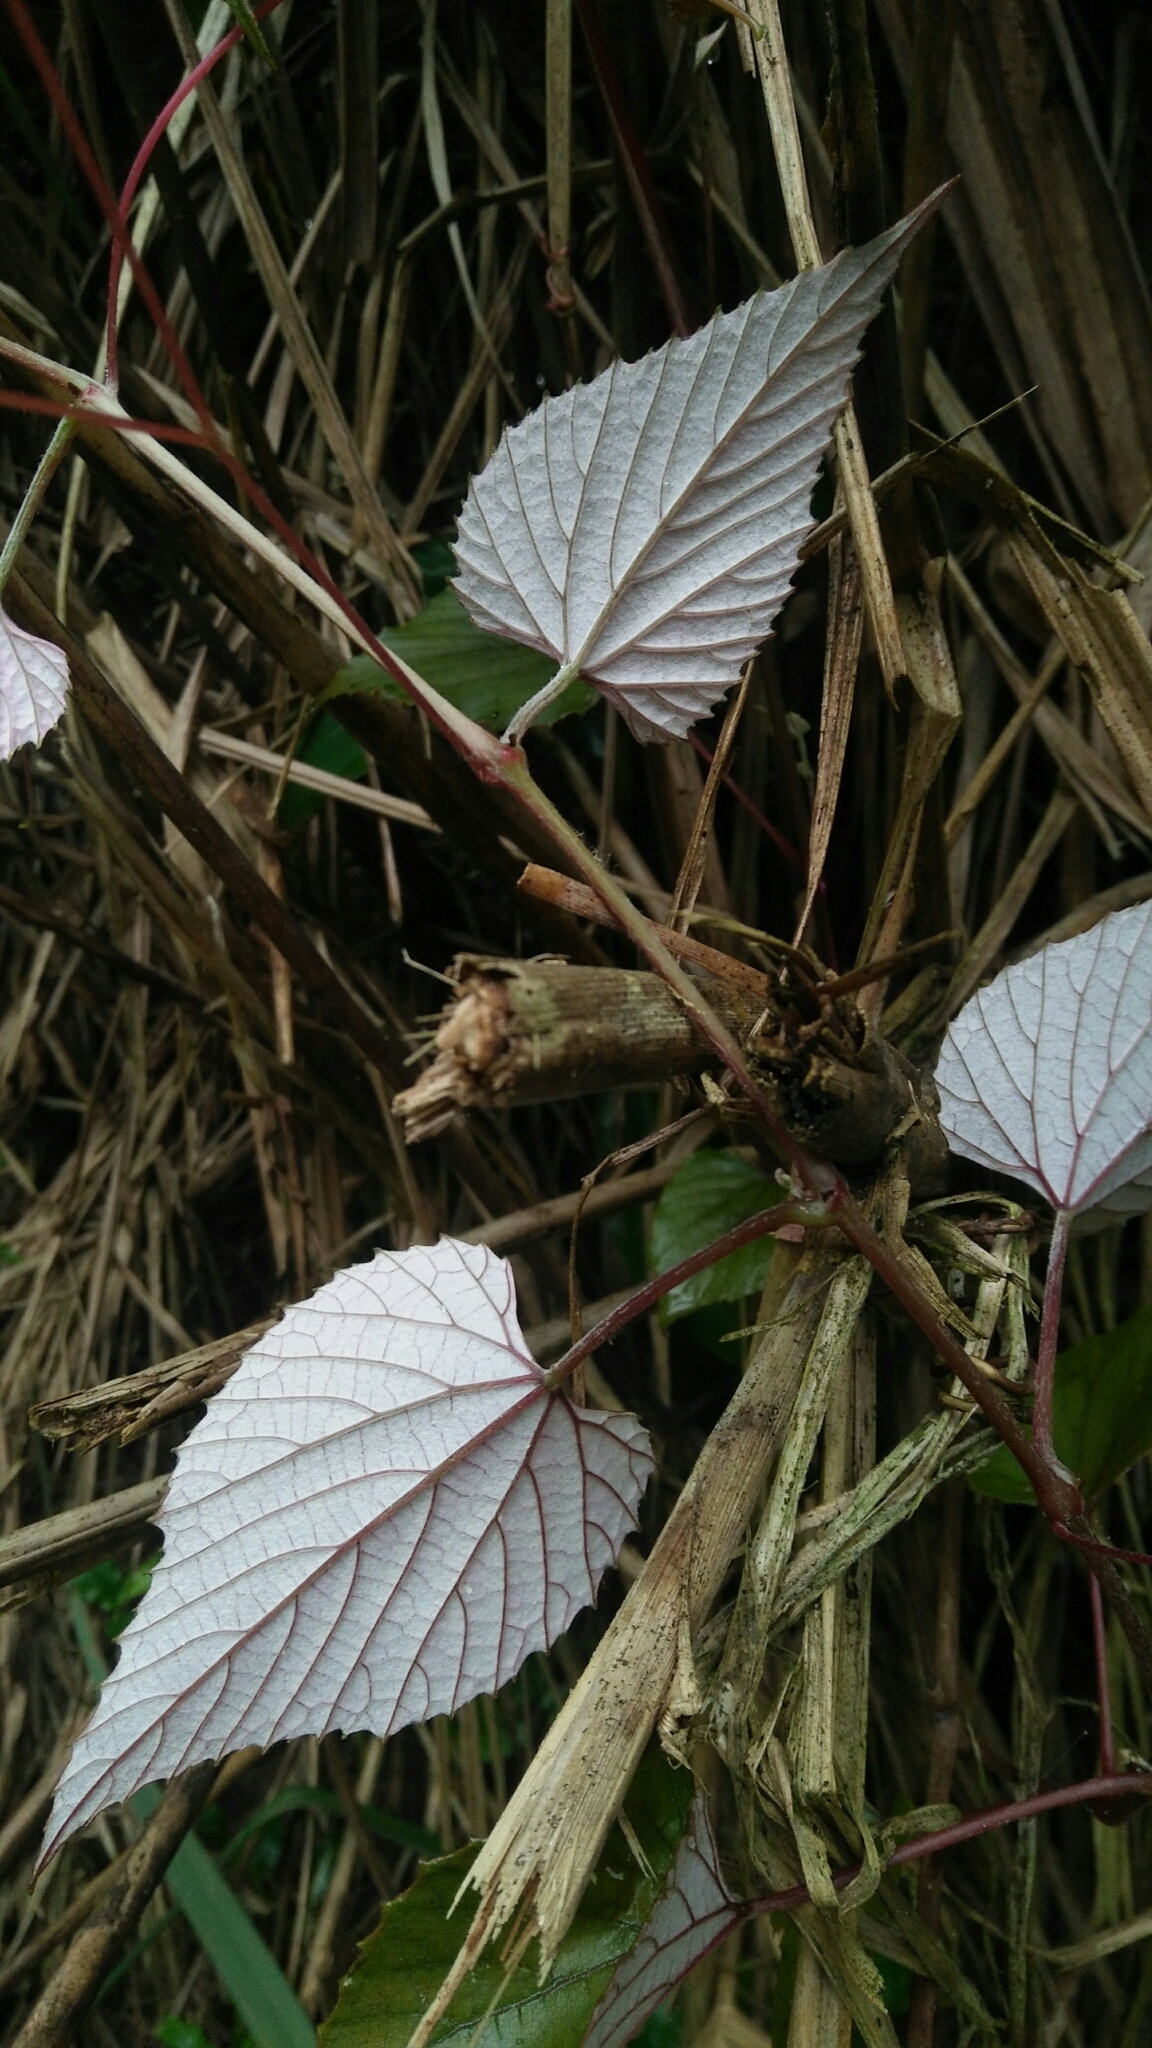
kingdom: Plantae
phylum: Tracheophyta
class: Magnoliopsida
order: Vitales
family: Vitaceae
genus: Vitis
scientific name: Vitis heyneana
